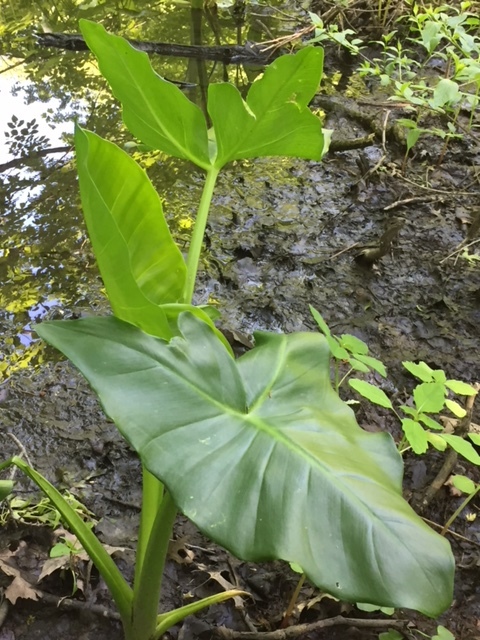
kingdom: Plantae
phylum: Tracheophyta
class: Liliopsida
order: Alismatales
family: Araceae
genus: Peltandra
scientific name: Peltandra virginica
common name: Arrow arum
